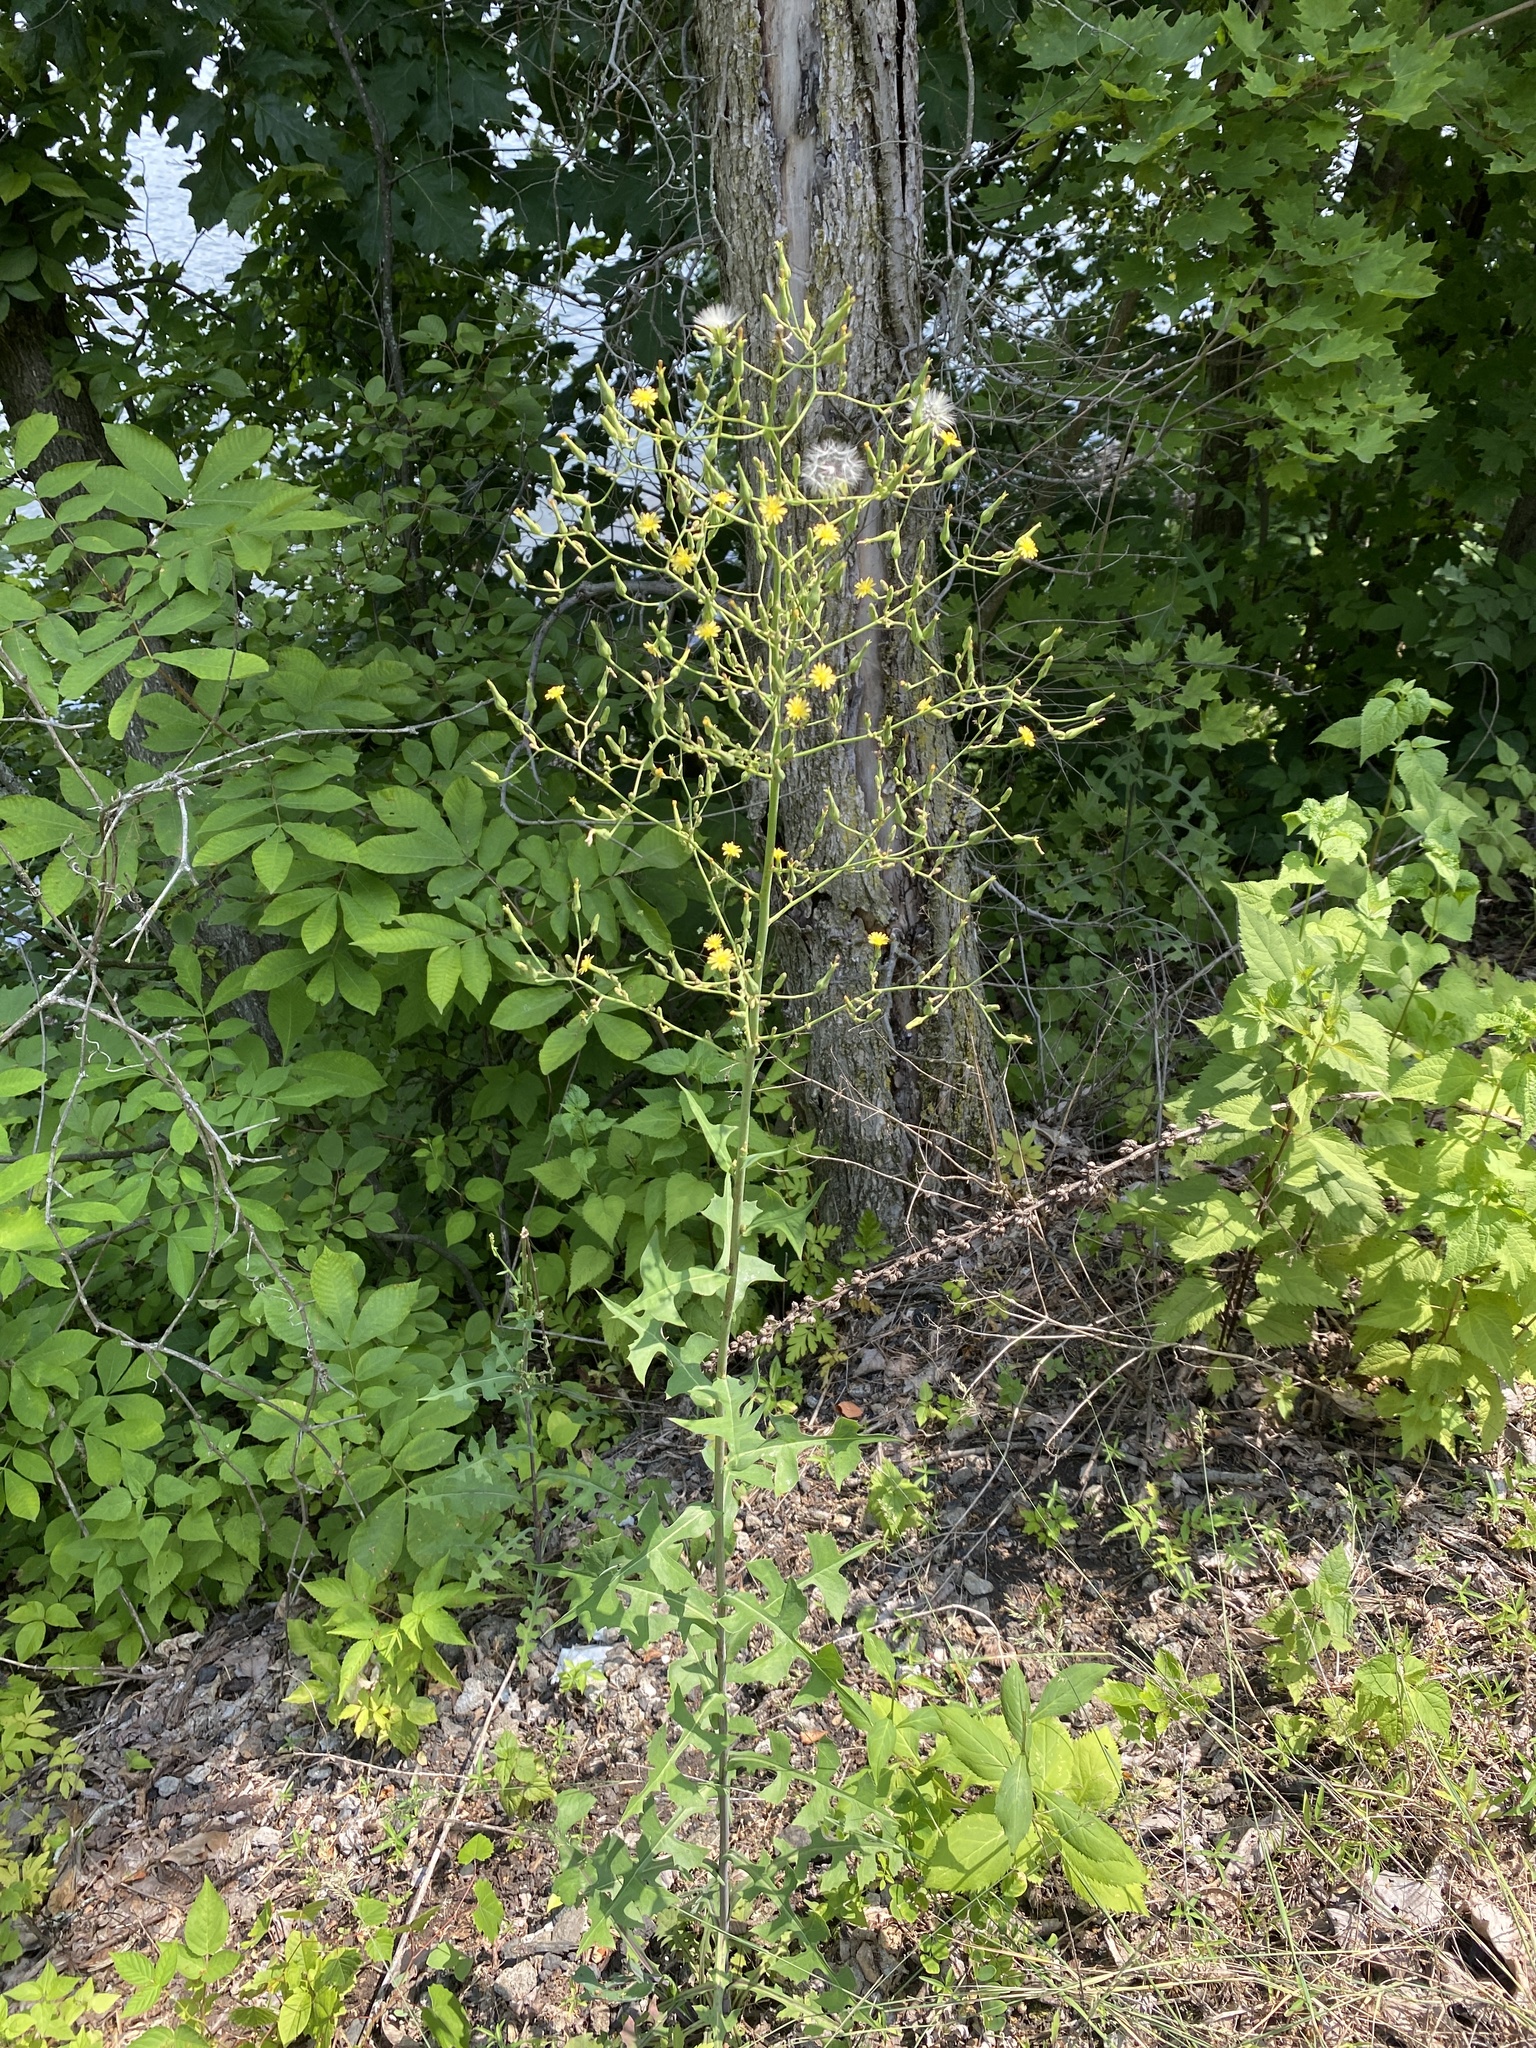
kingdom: Plantae
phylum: Tracheophyta
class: Magnoliopsida
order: Asterales
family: Asteraceae
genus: Lactuca
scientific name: Lactuca canadensis
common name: Canada lettuce
